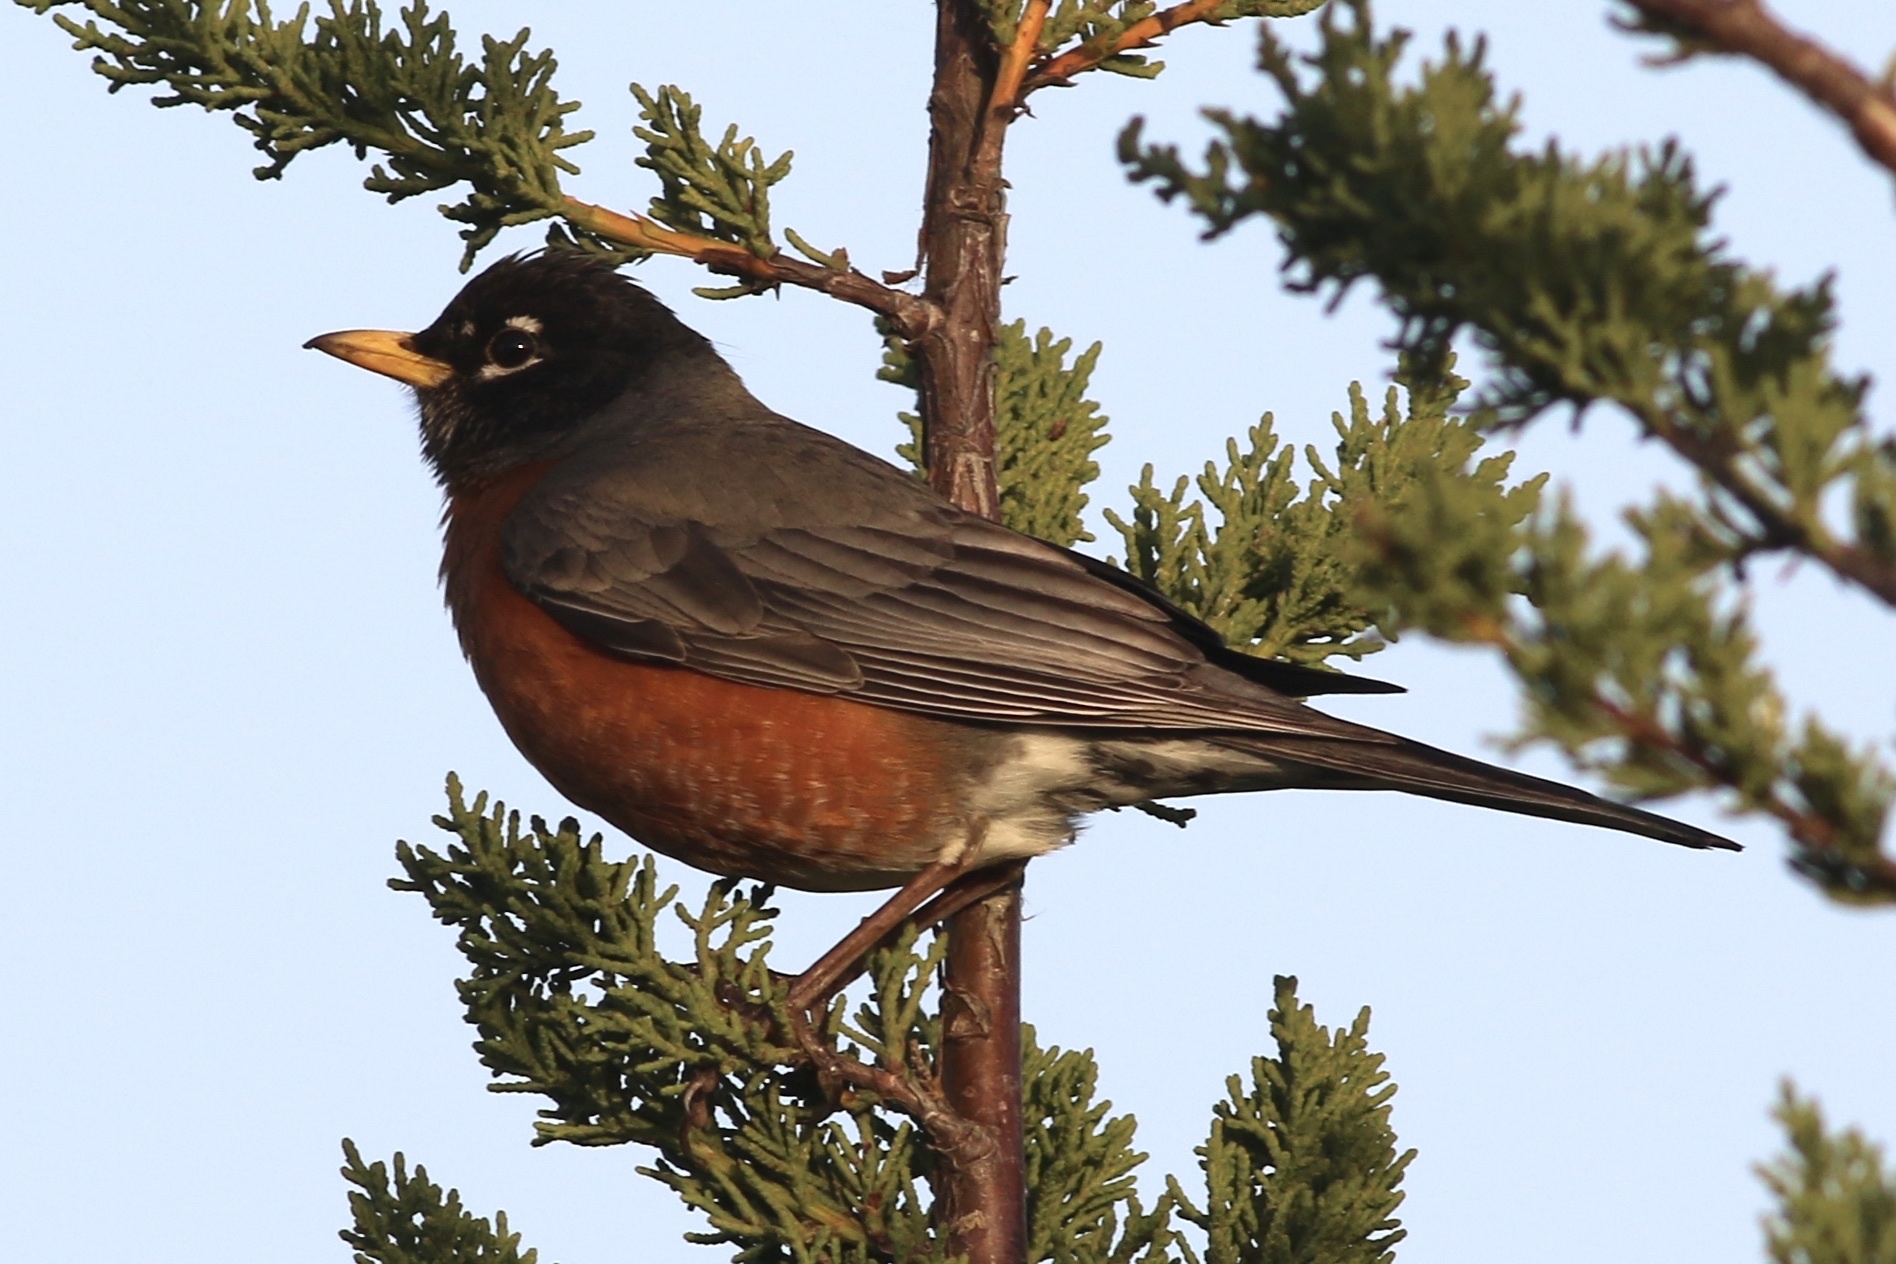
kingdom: Animalia
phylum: Chordata
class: Aves
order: Passeriformes
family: Turdidae
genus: Turdus
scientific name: Turdus migratorius
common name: American robin
